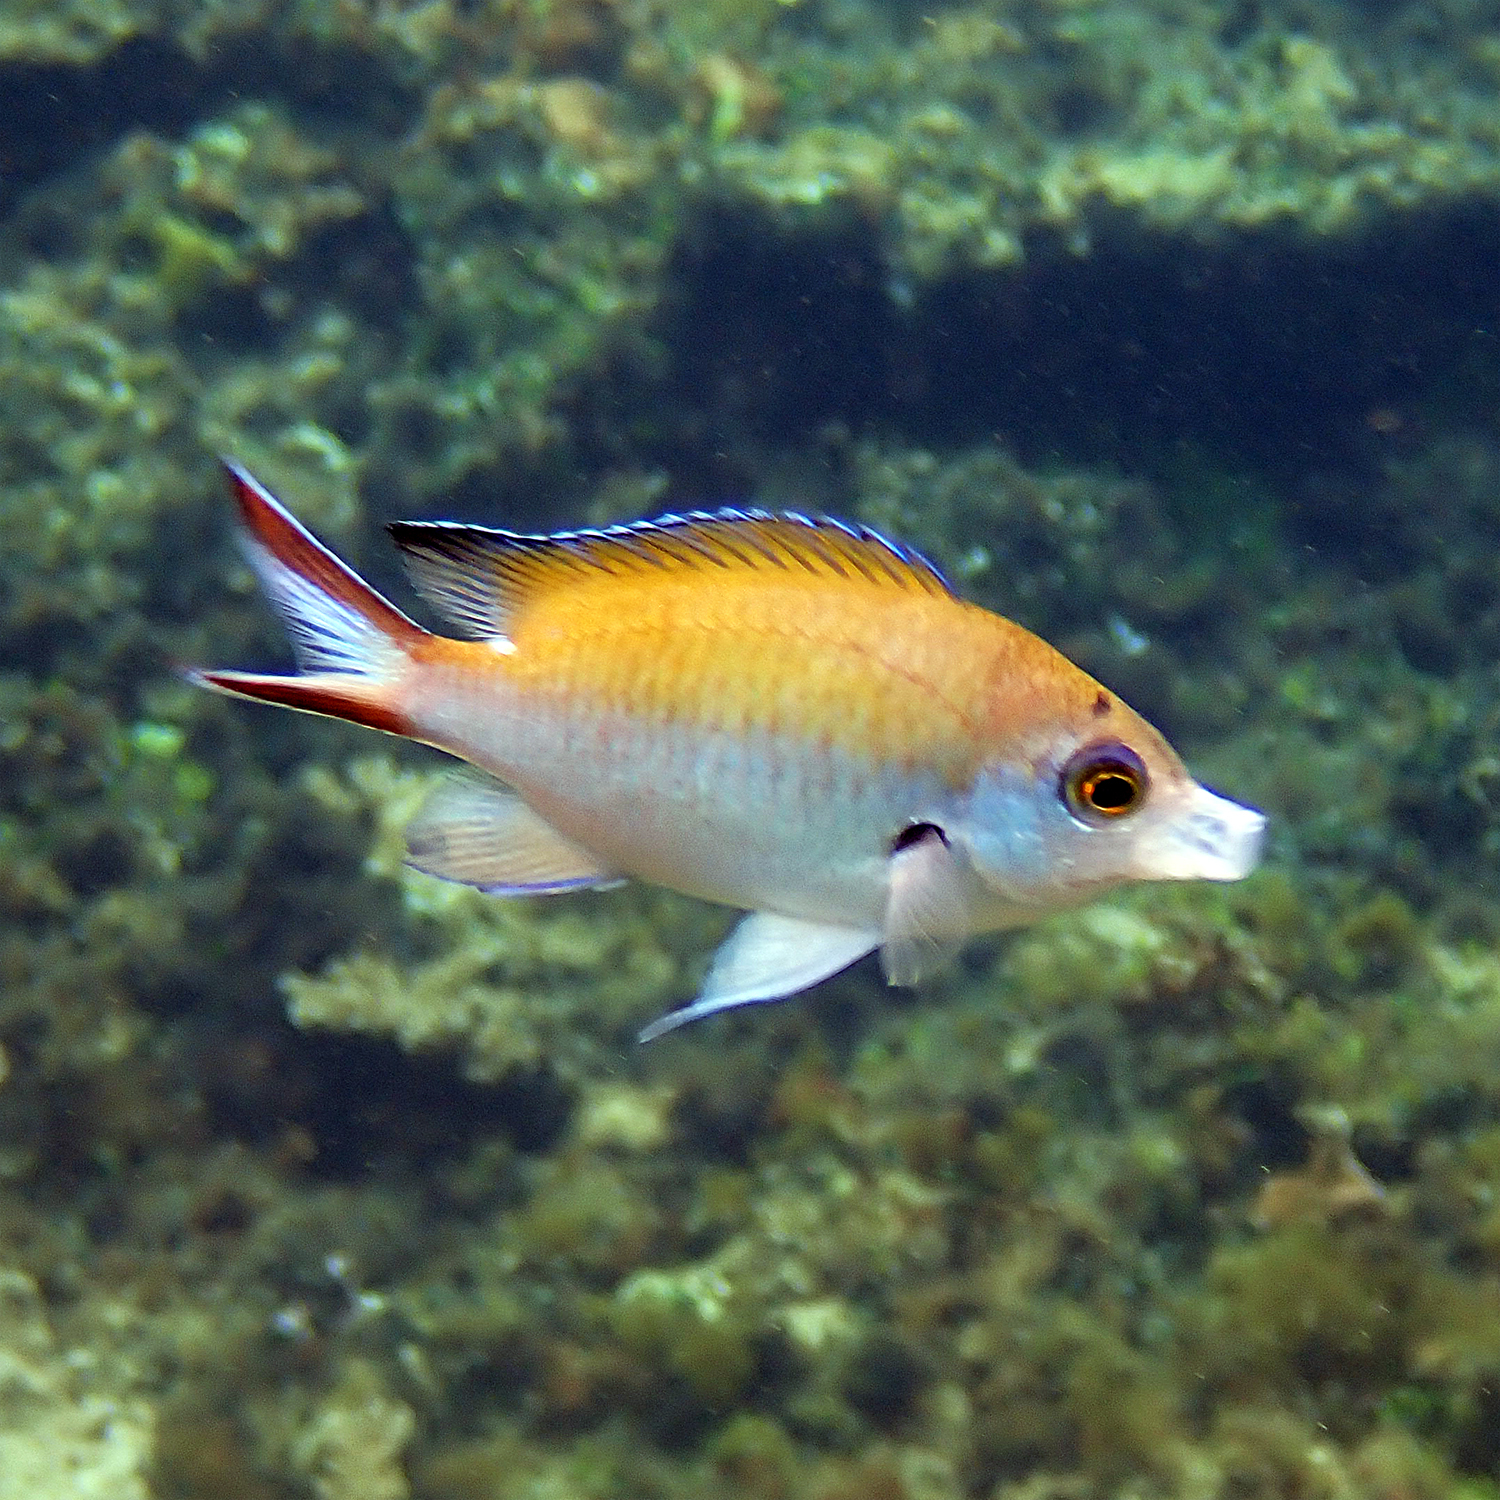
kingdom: Animalia
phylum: Chordata
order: Perciformes
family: Pomacentridae
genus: Chromis
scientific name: Chromis norfolkensis
